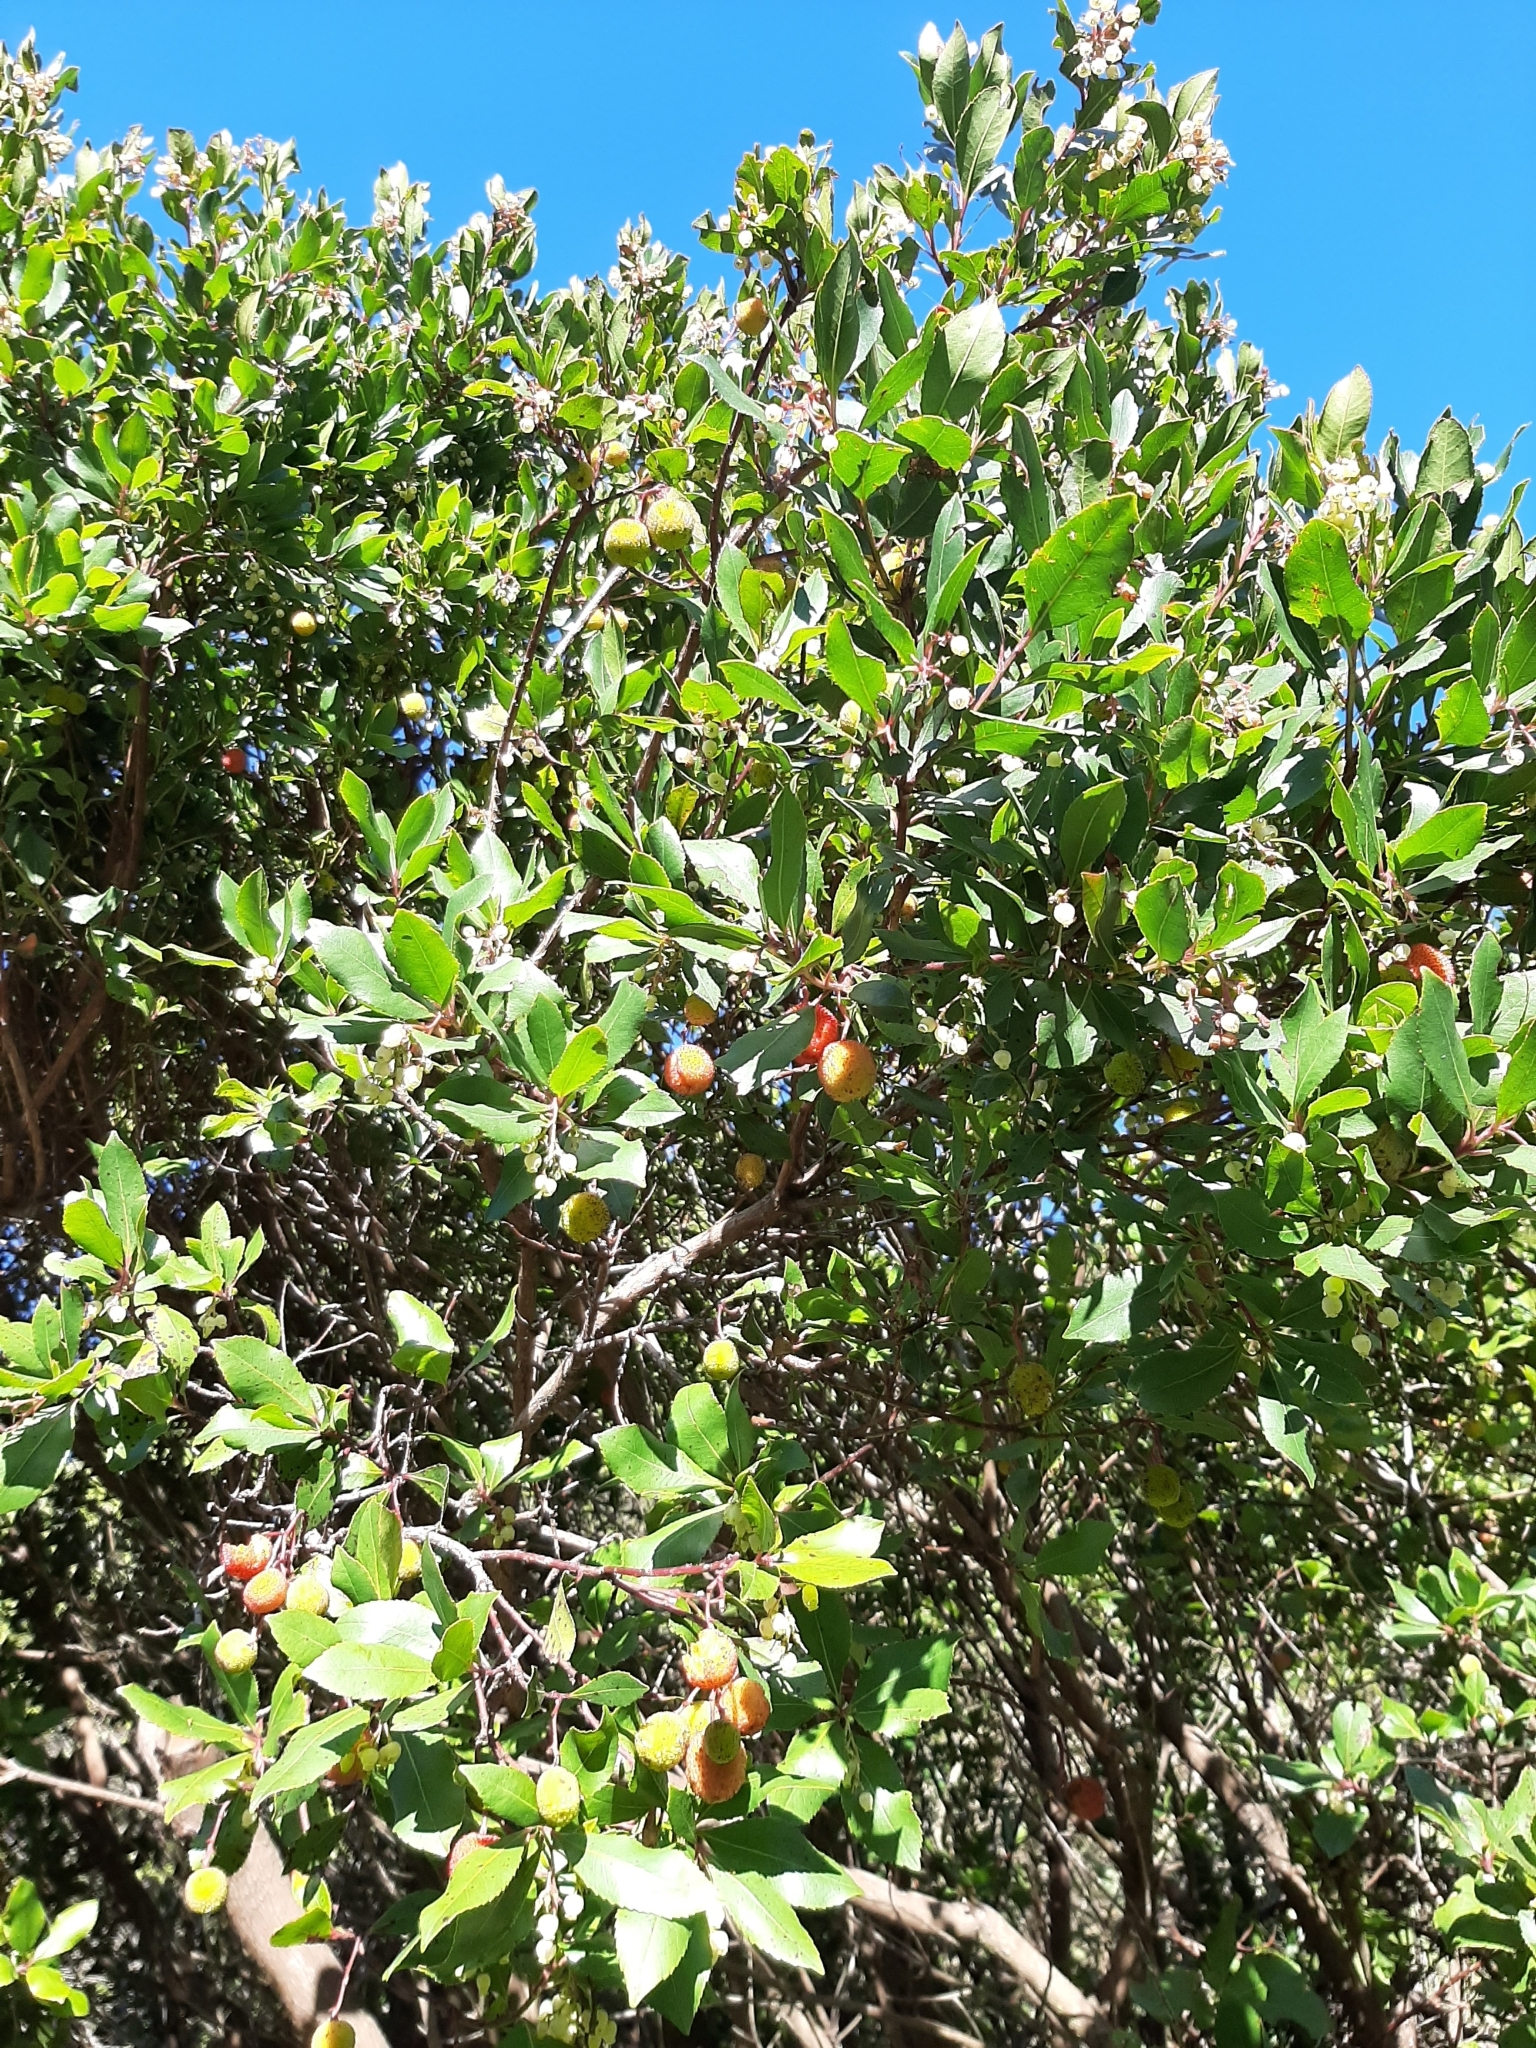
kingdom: Plantae
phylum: Tracheophyta
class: Magnoliopsida
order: Ericales
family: Ericaceae
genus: Arbutus
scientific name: Arbutus unedo
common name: Strawberry-tree
